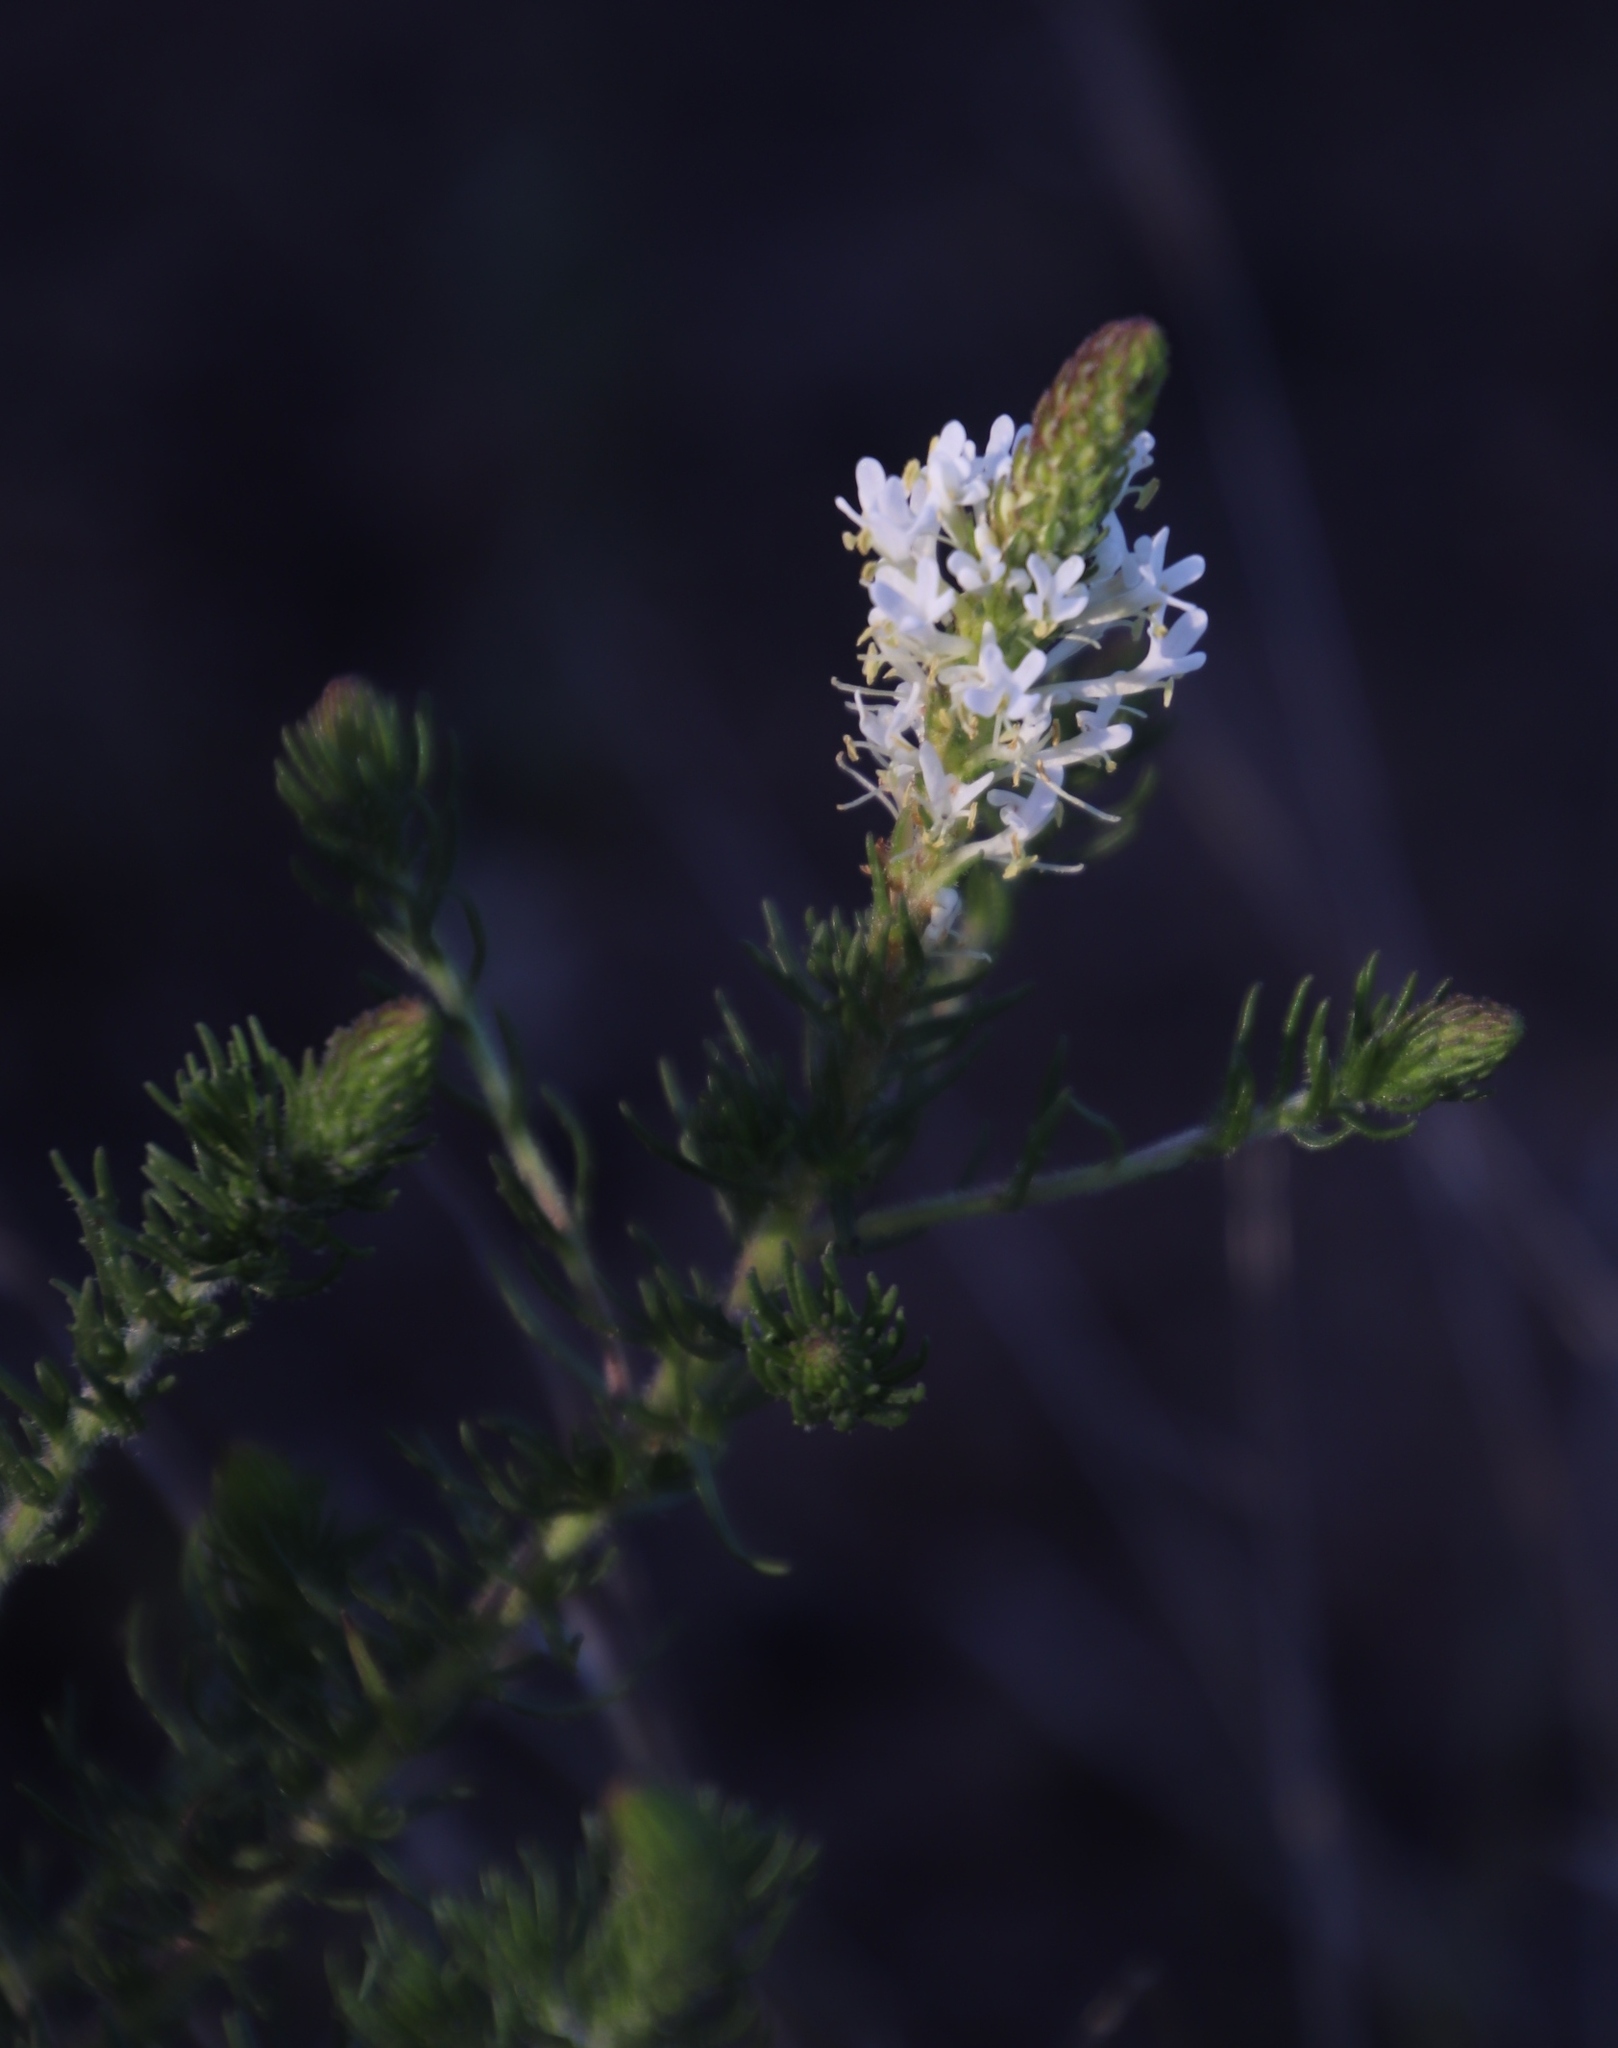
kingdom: Plantae
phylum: Tracheophyta
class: Magnoliopsida
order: Lamiales
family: Scrophulariaceae
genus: Dischisma
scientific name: Dischisma ciliatum
